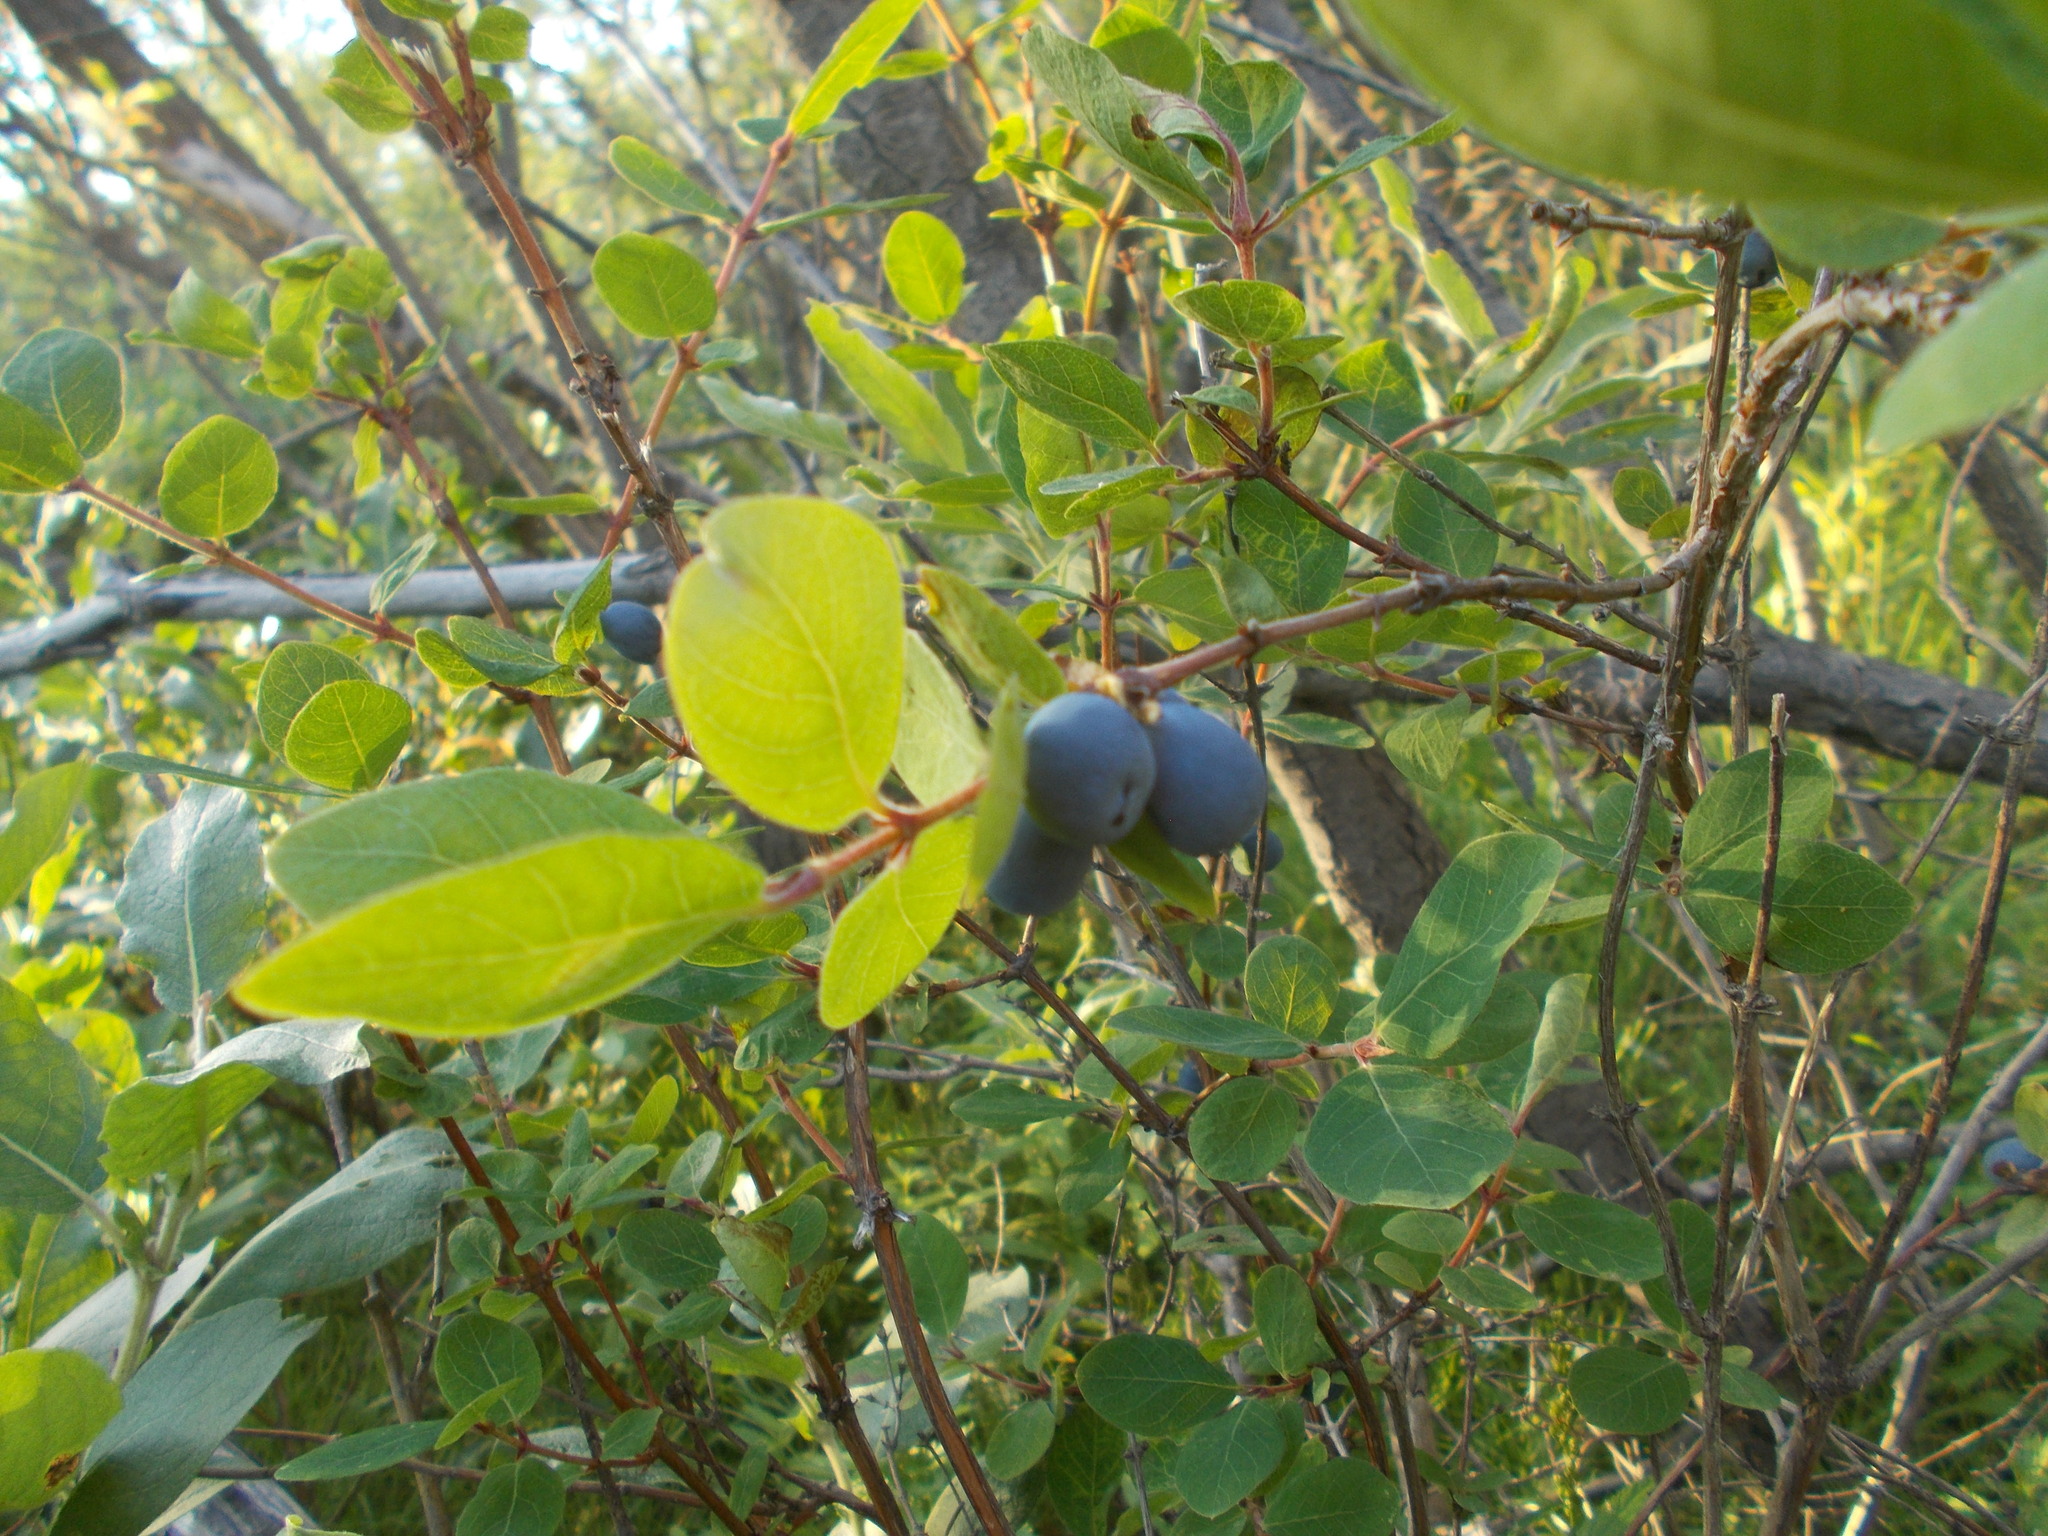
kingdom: Plantae
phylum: Tracheophyta
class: Magnoliopsida
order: Dipsacales
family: Caprifoliaceae
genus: Lonicera
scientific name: Lonicera caerulea
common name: Blue honeysuckle
